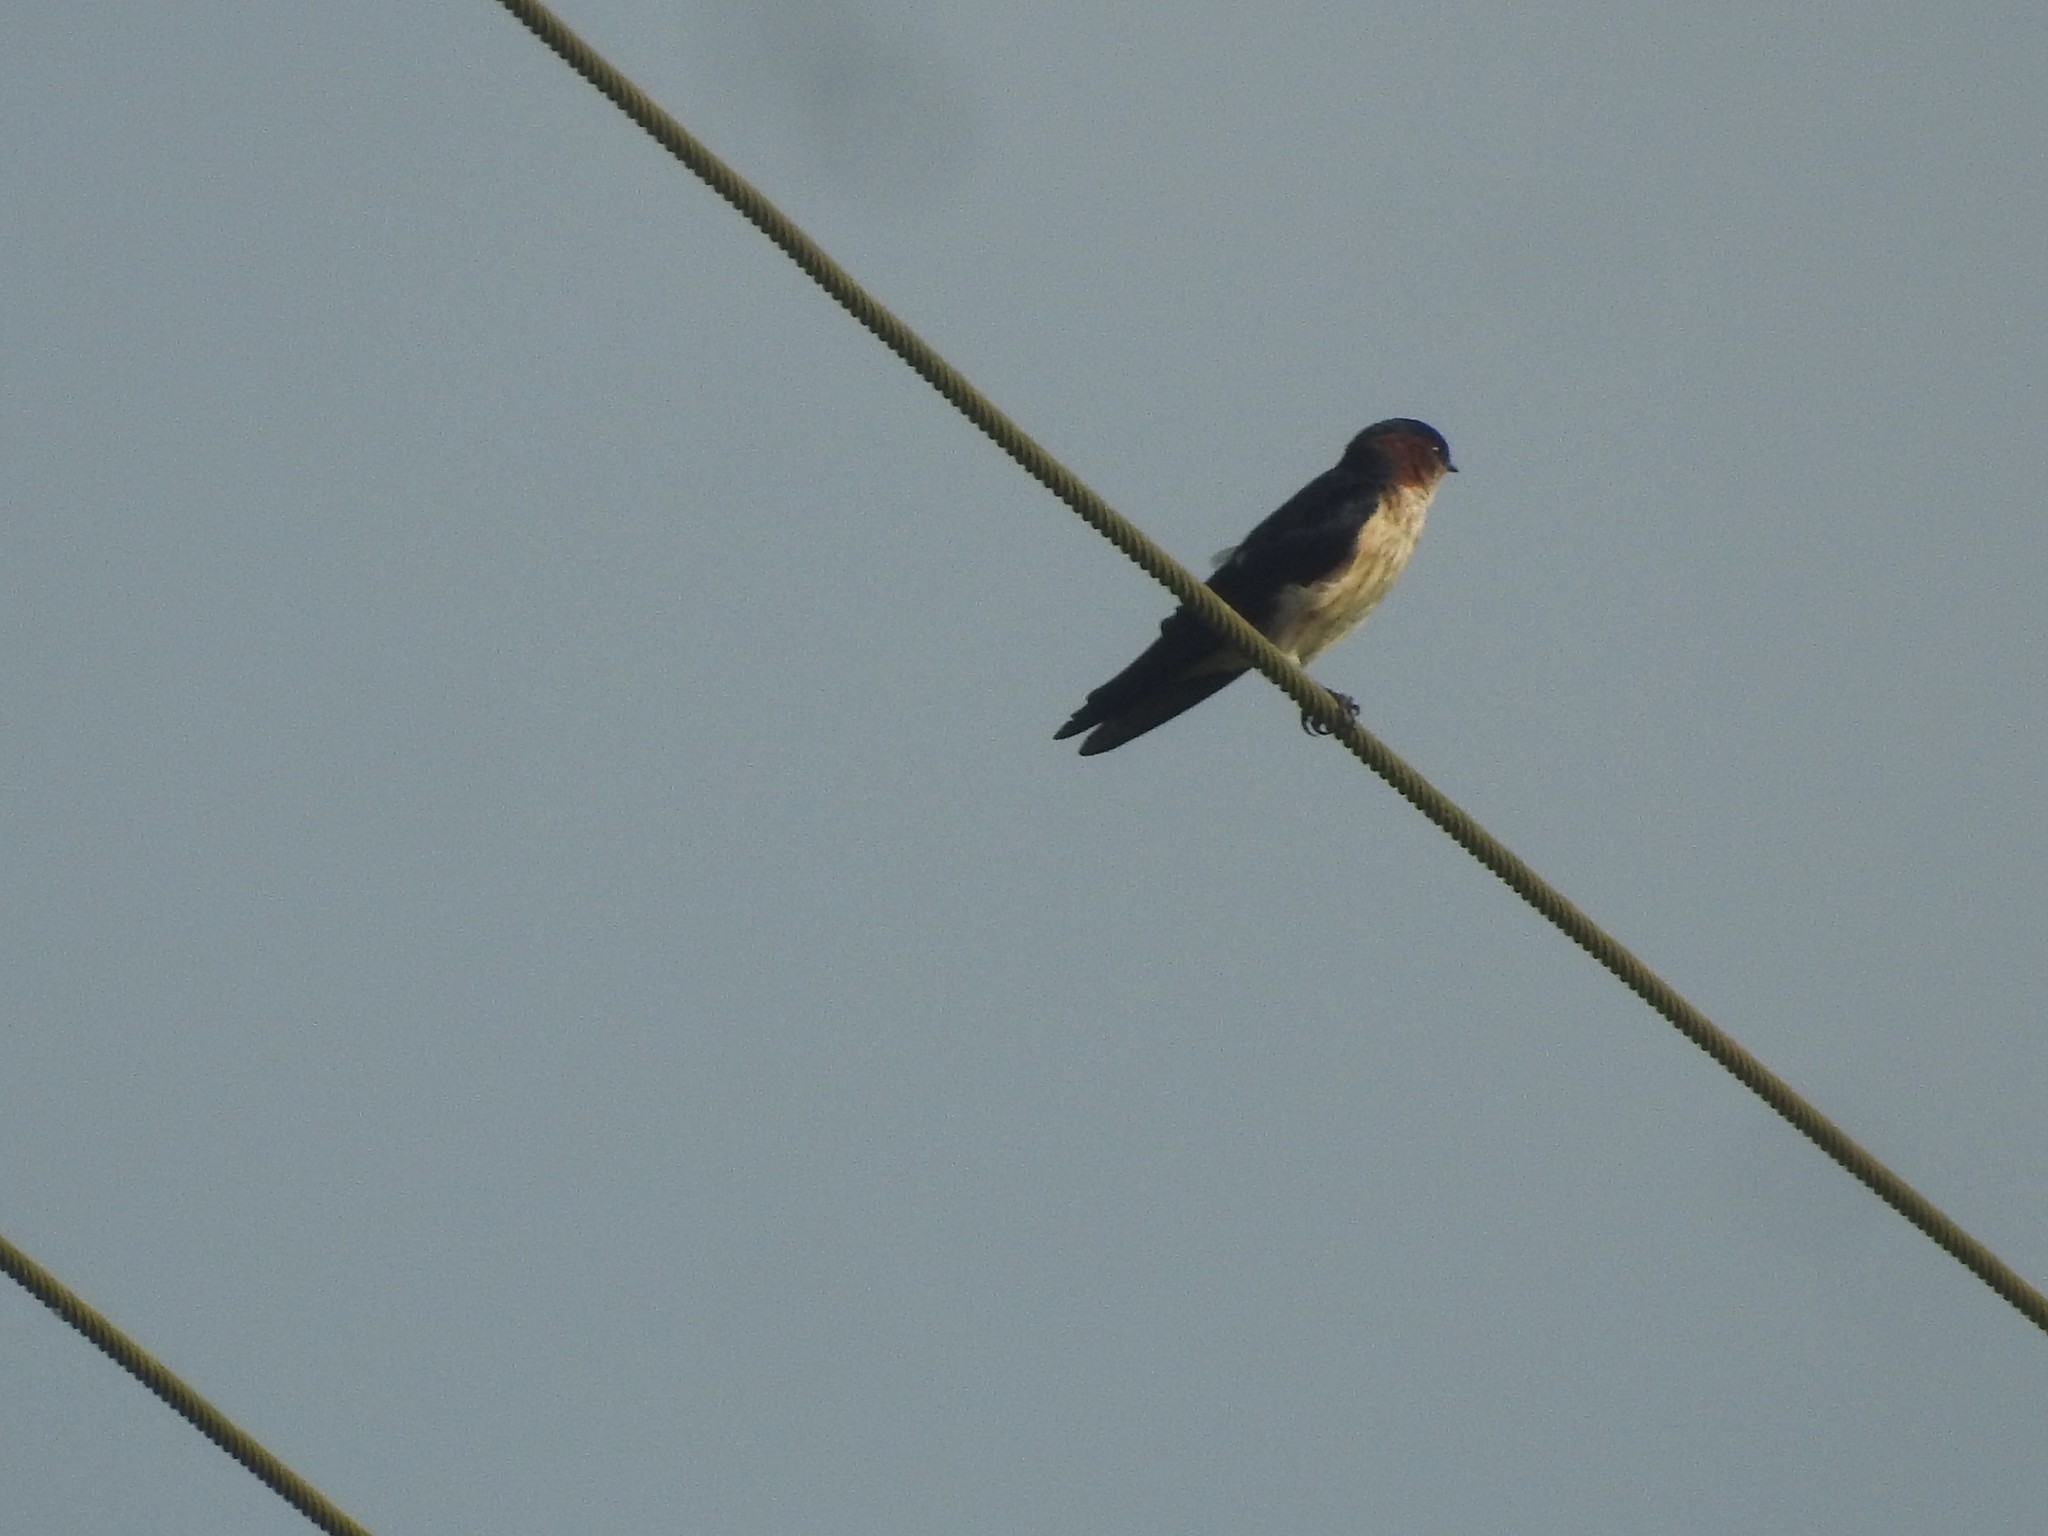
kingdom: Animalia
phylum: Chordata
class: Aves
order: Passeriformes
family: Hirundinidae
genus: Cecropis
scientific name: Cecropis daurica
